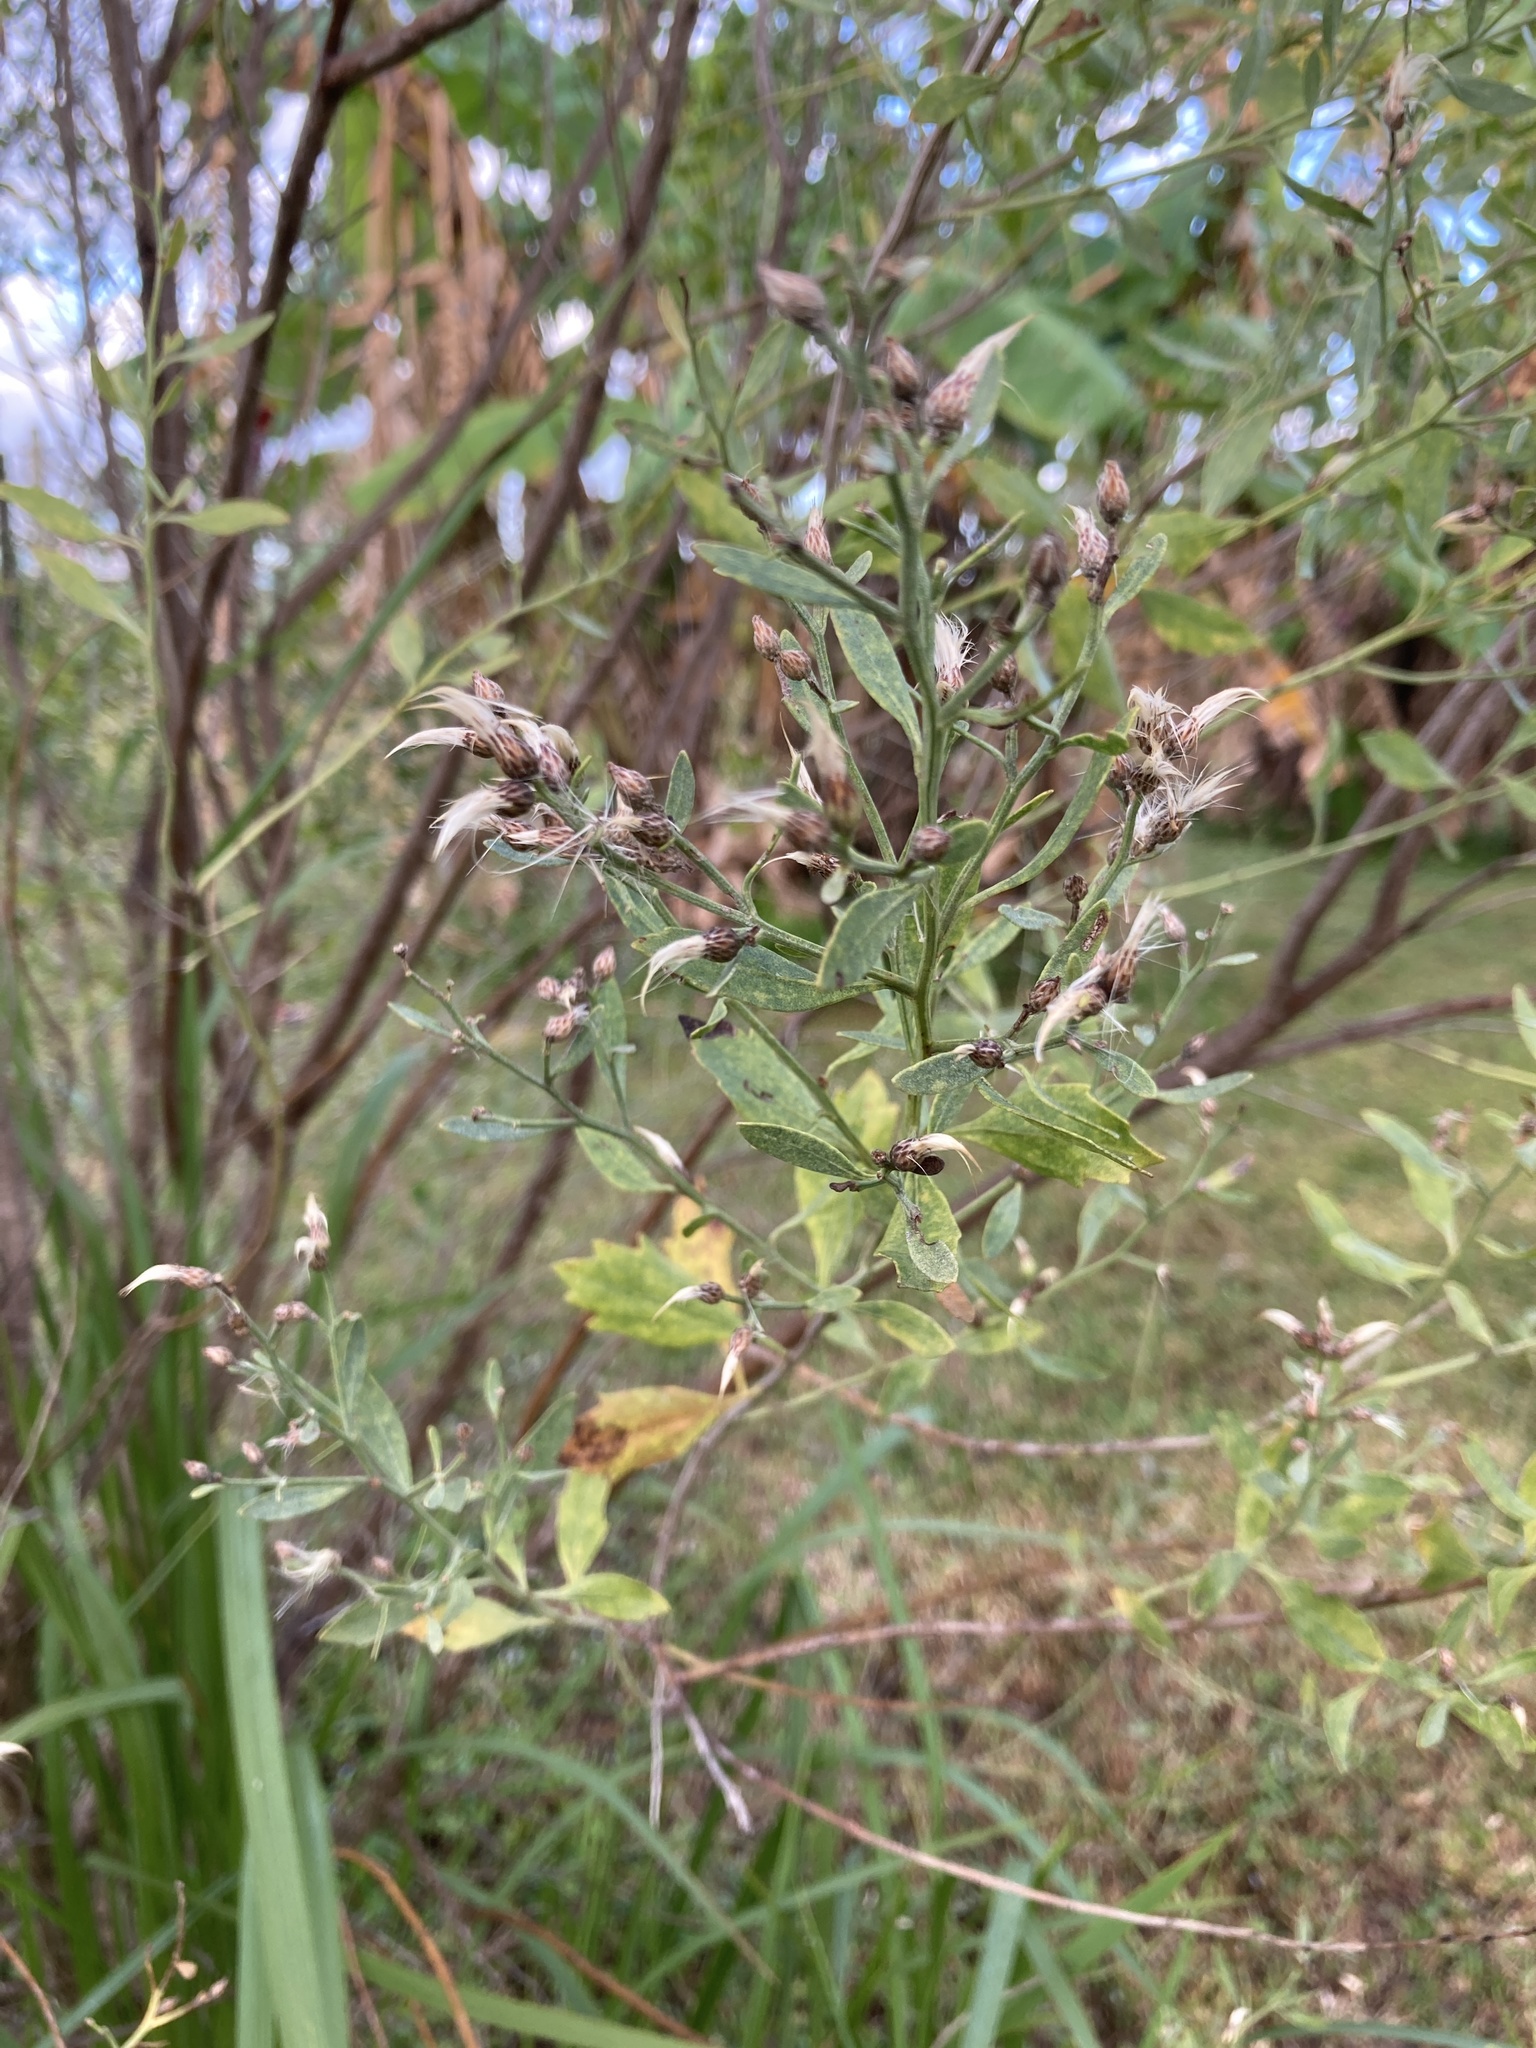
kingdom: Plantae
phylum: Tracheophyta
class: Magnoliopsida
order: Asterales
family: Asteraceae
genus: Baccharis
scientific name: Baccharis halimifolia
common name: Eastern baccharis
